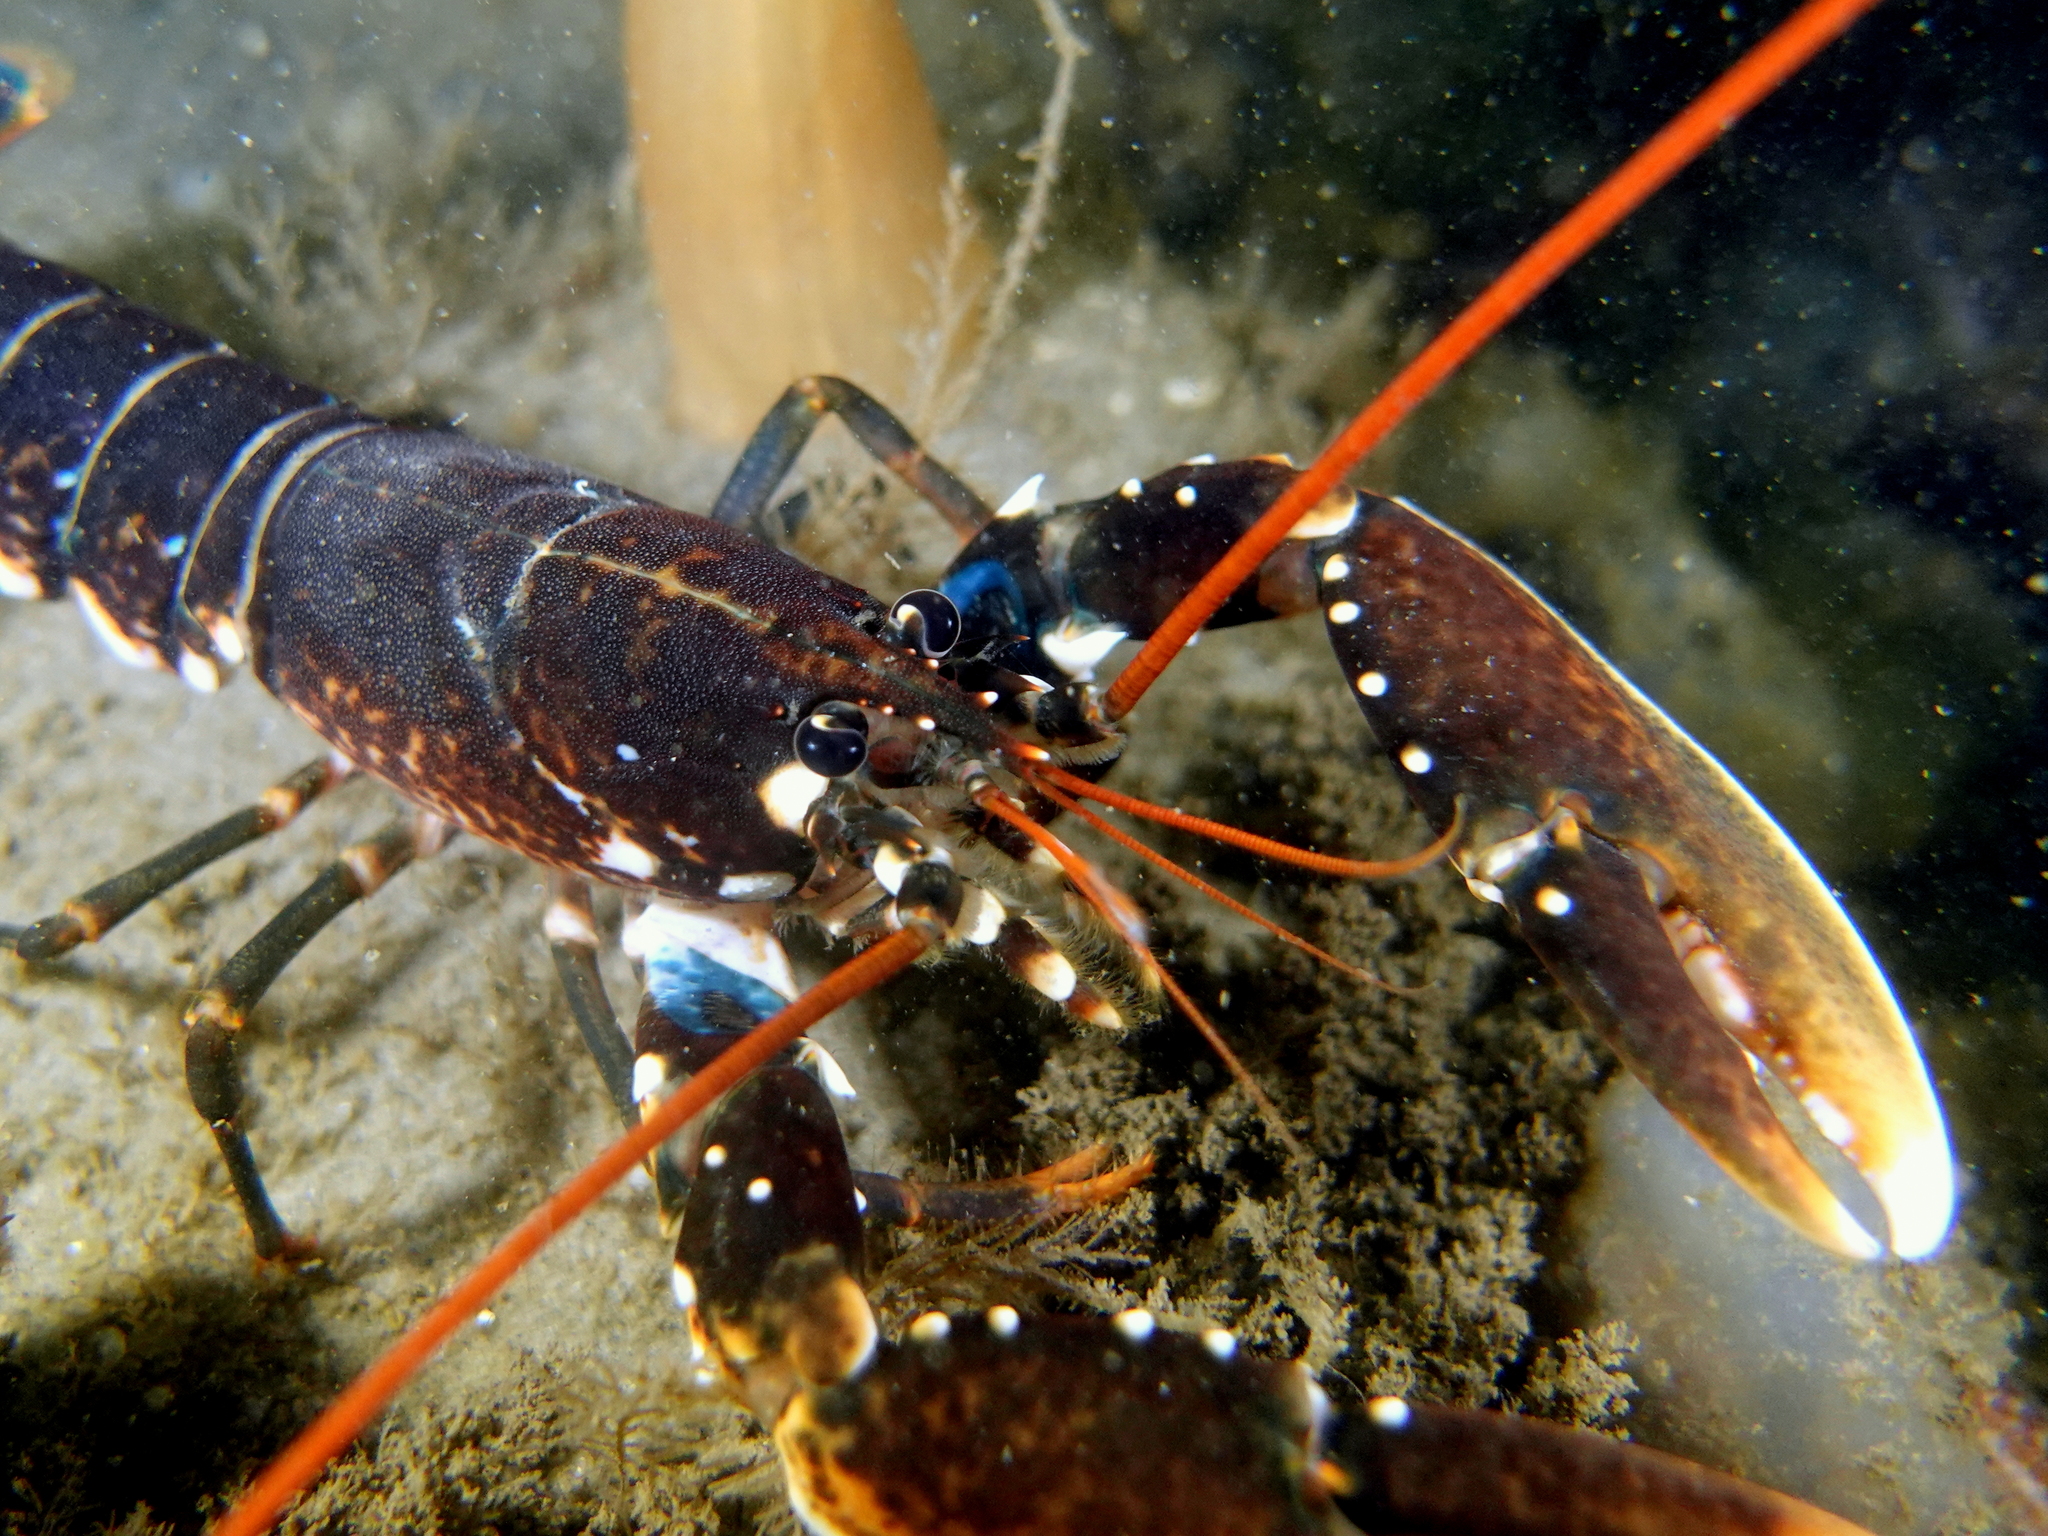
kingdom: Animalia
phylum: Arthropoda
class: Malacostraca
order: Decapoda
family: Nephropidae
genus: Homarus
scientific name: Homarus gammarus
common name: European lobster
